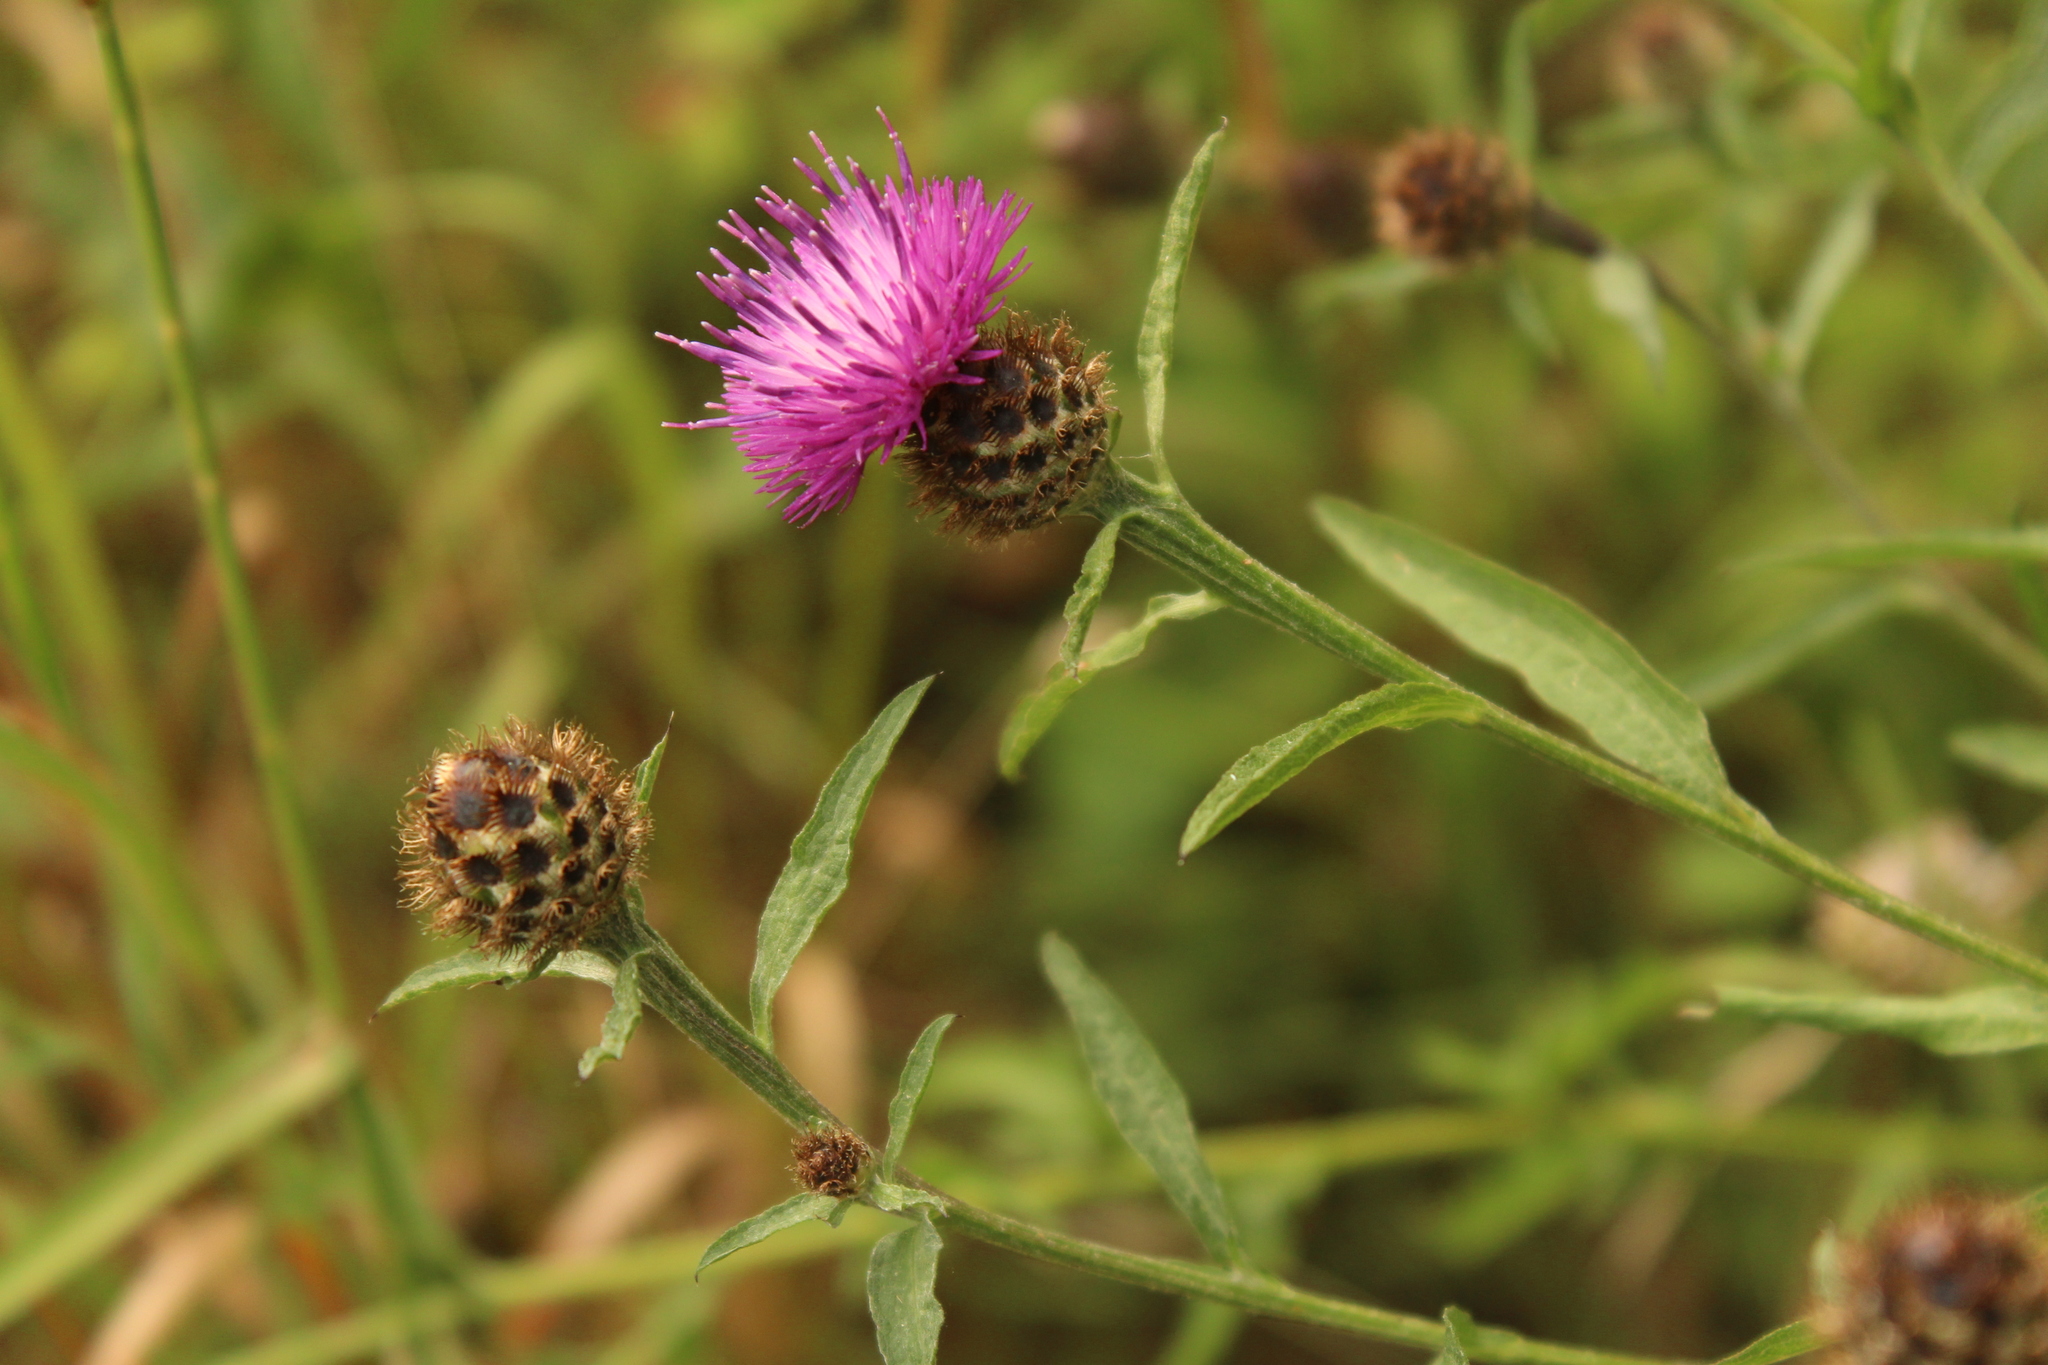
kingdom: Plantae
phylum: Tracheophyta
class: Magnoliopsida
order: Asterales
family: Asteraceae
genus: Centaurea
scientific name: Centaurea nigra
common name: Lesser knapweed
